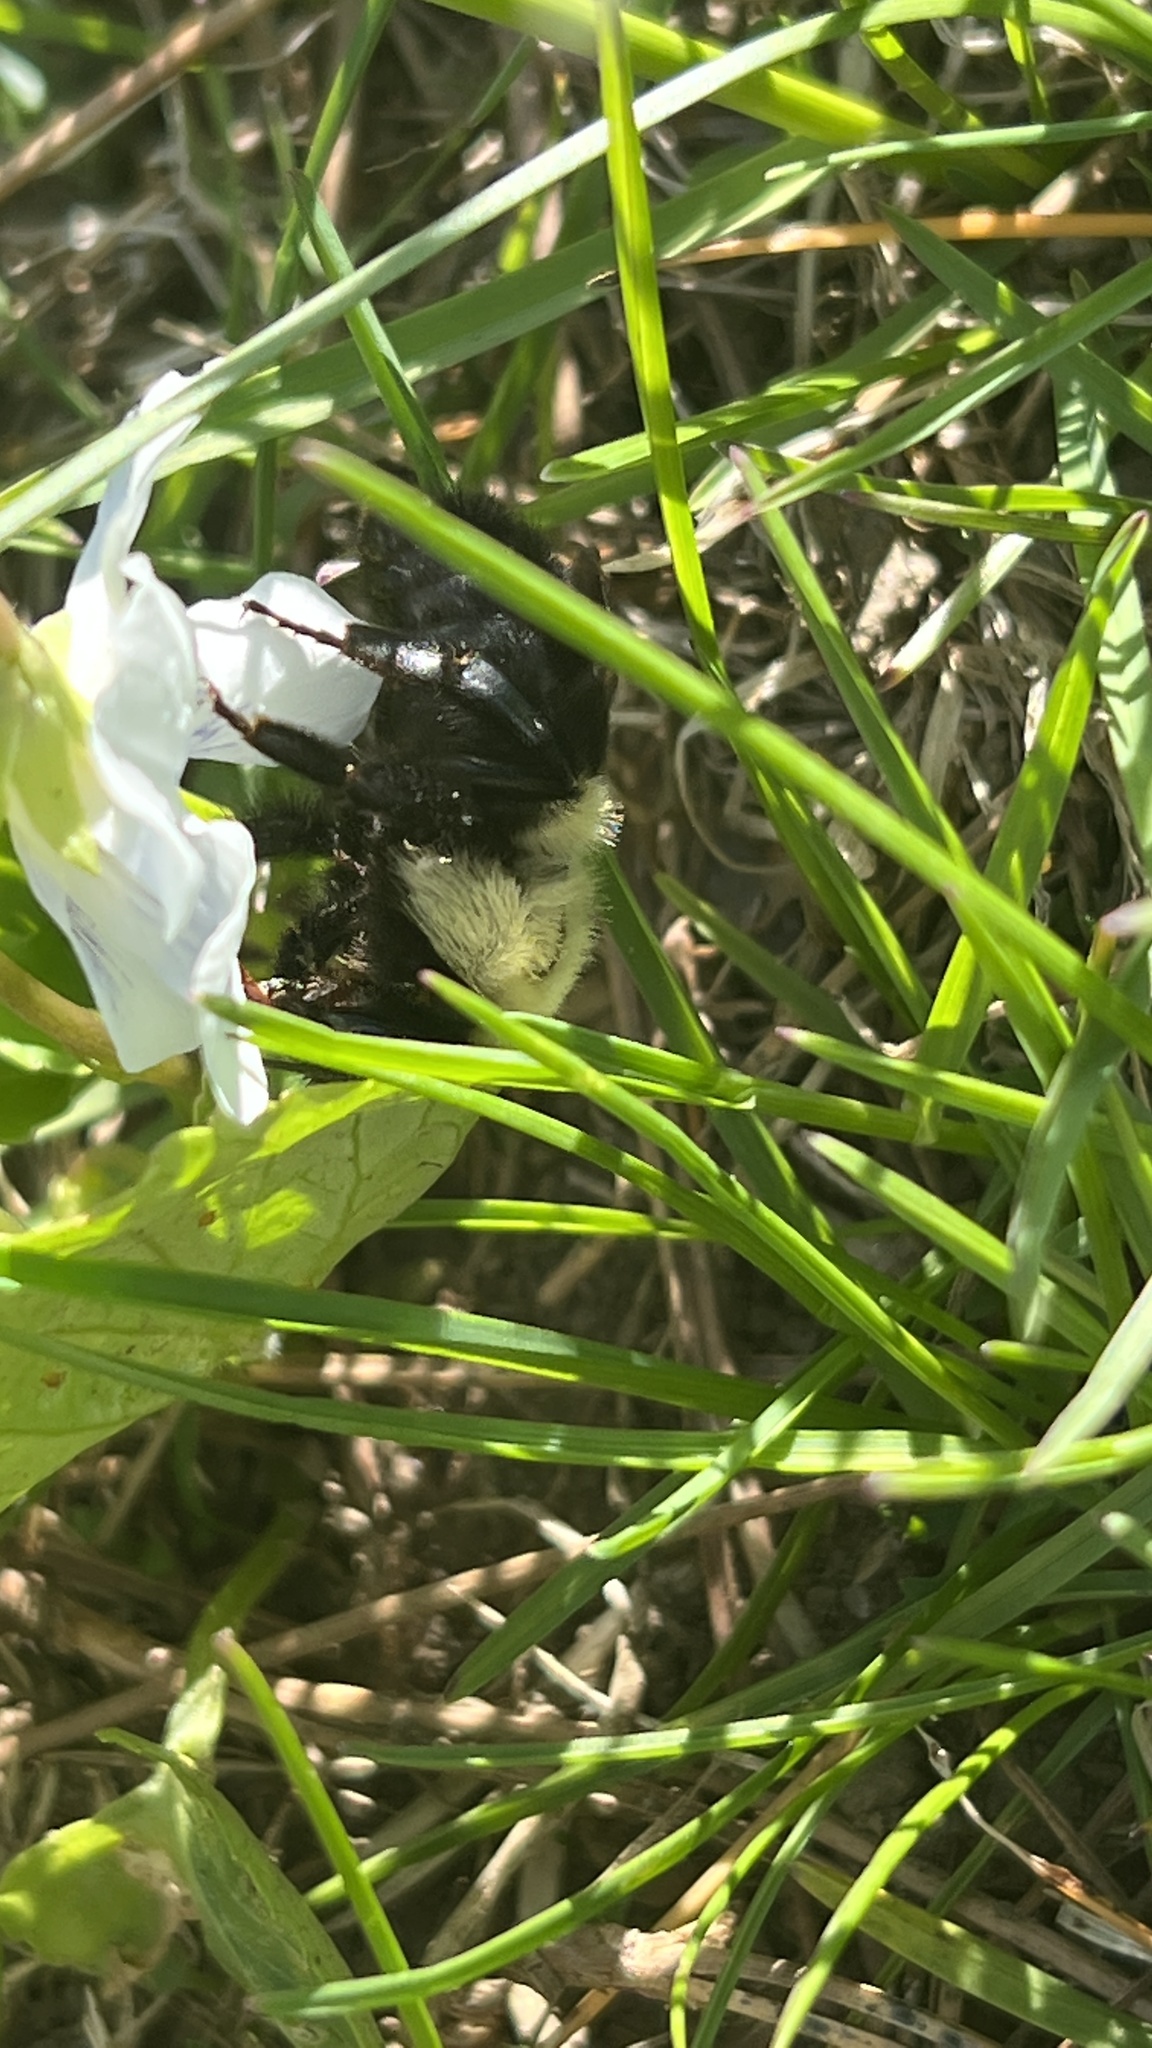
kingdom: Animalia
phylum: Arthropoda
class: Insecta
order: Hymenoptera
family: Apidae
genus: Bombus
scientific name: Bombus bimaculatus
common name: Two-spotted bumble bee
